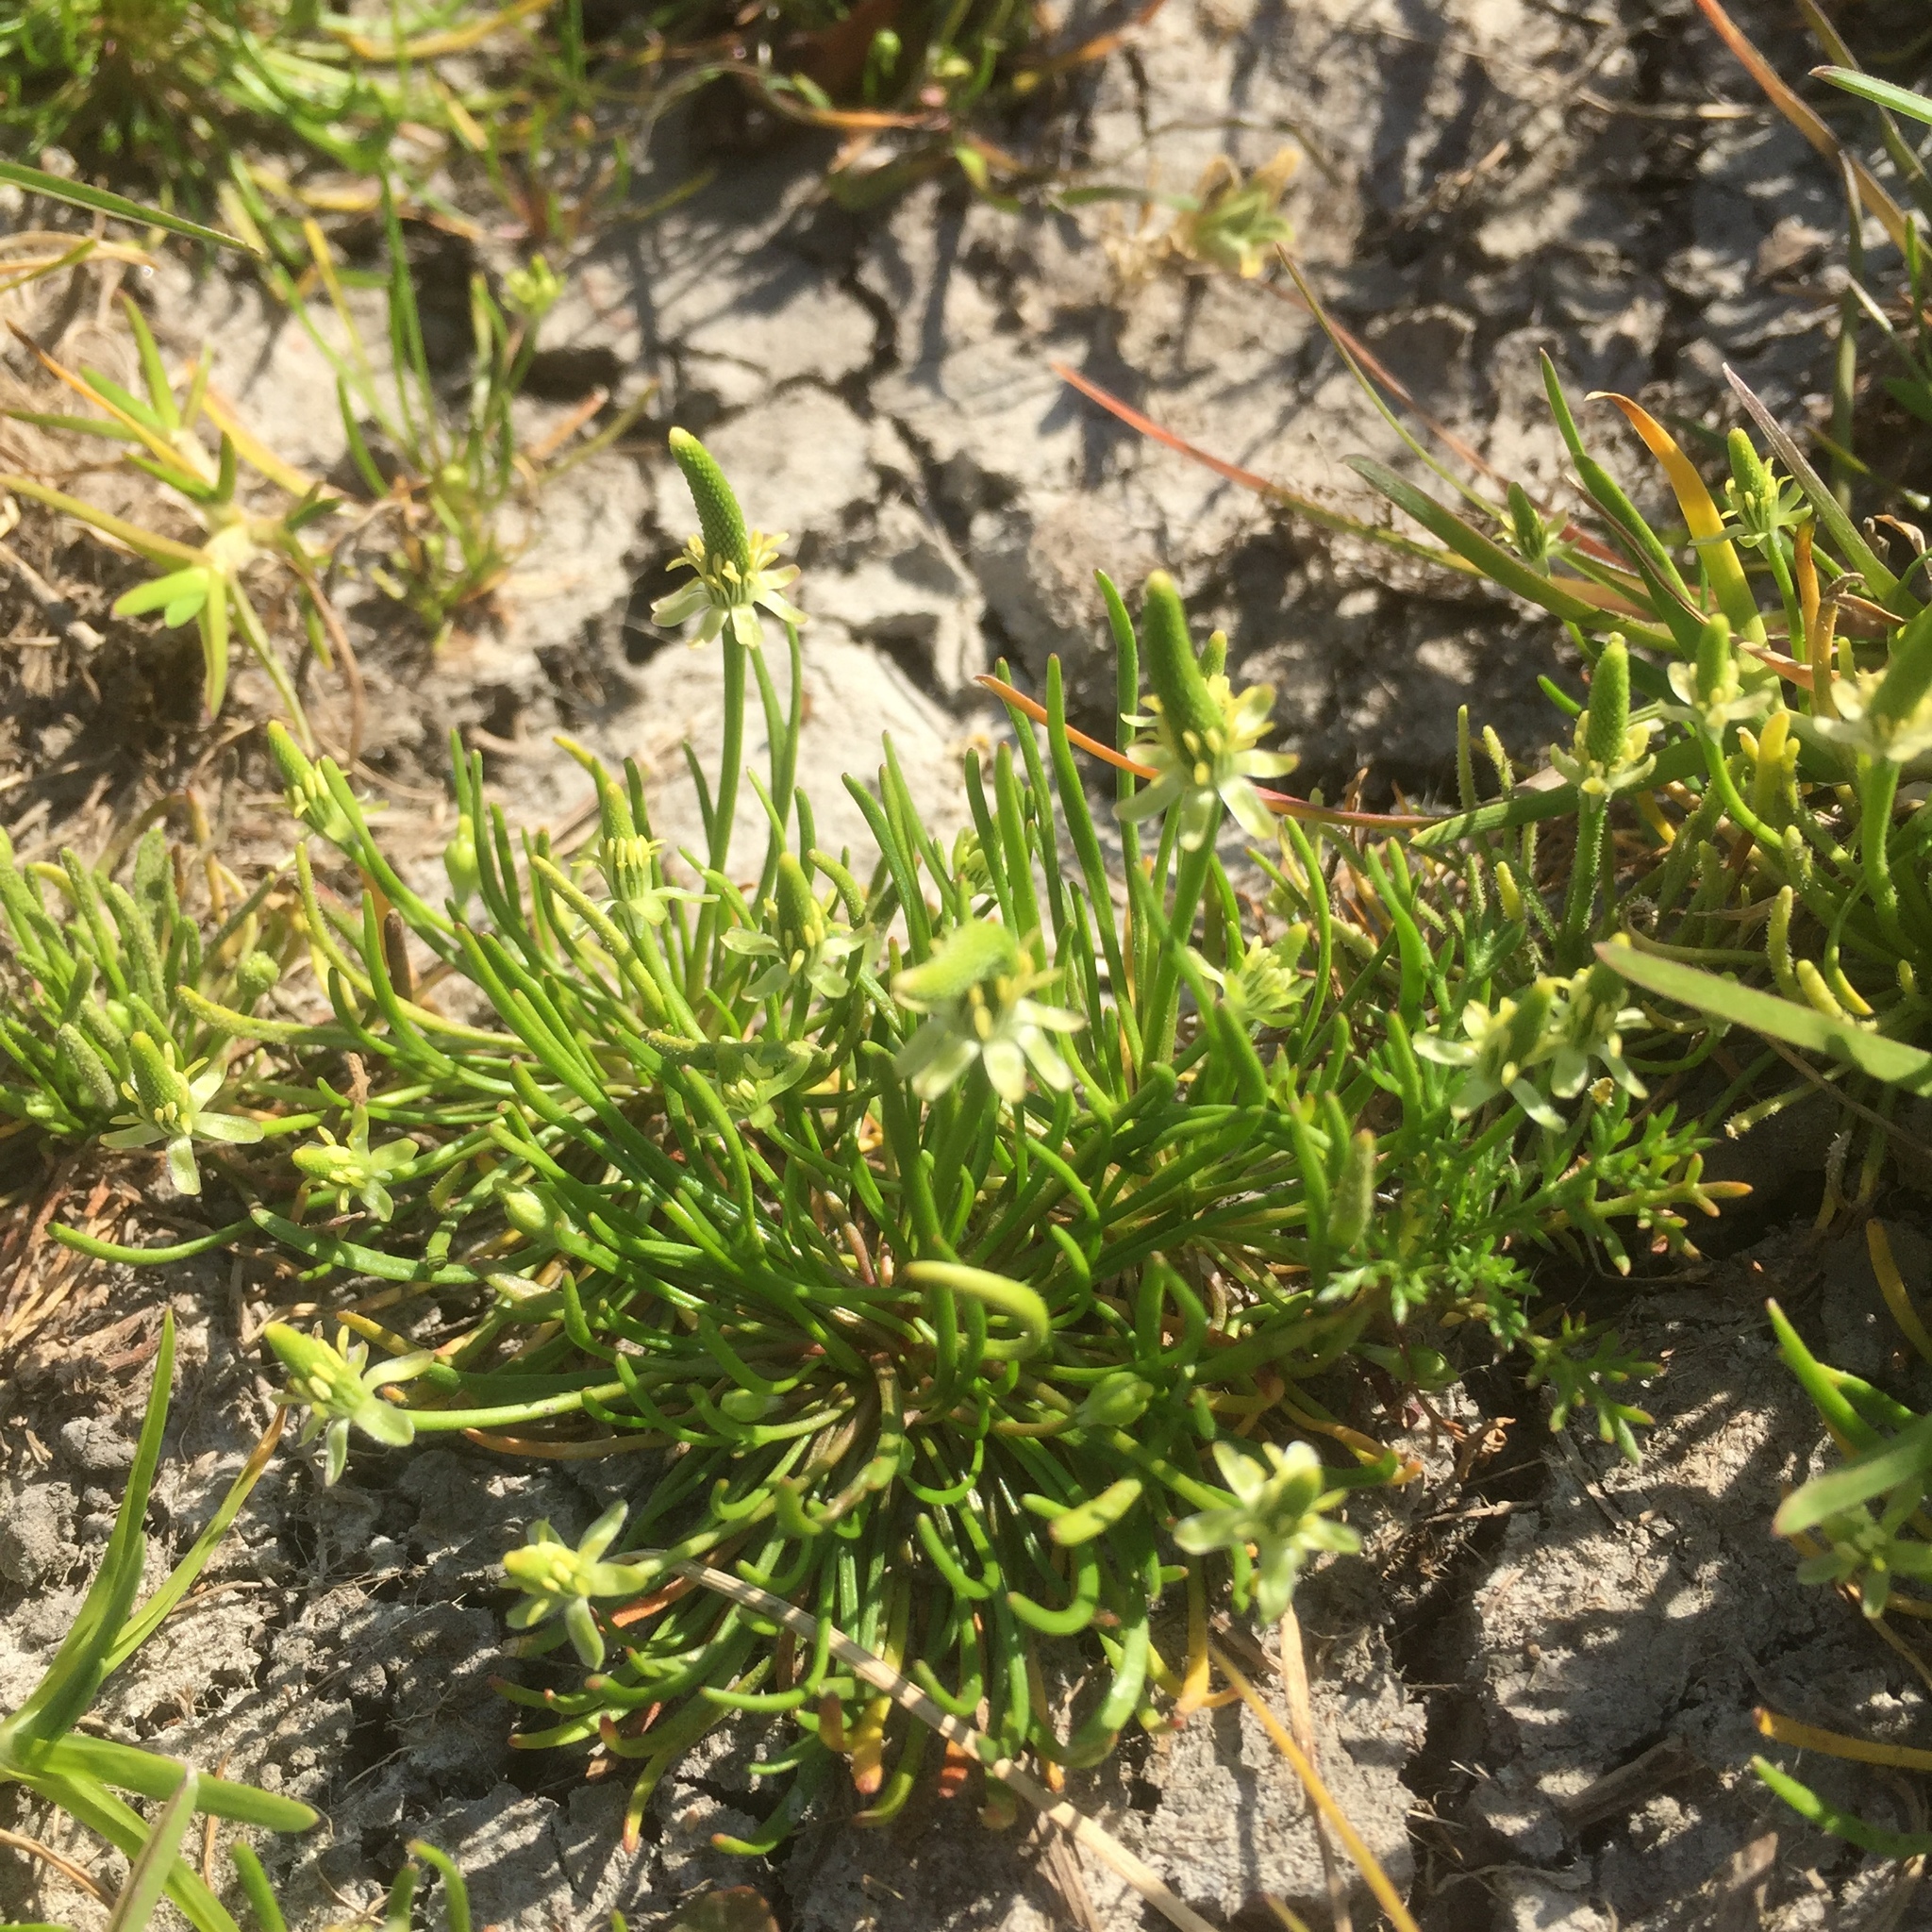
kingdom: Plantae
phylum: Tracheophyta
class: Magnoliopsida
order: Ranunculales
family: Ranunculaceae
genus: Myosurus
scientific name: Myosurus minimus
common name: Mousetail
